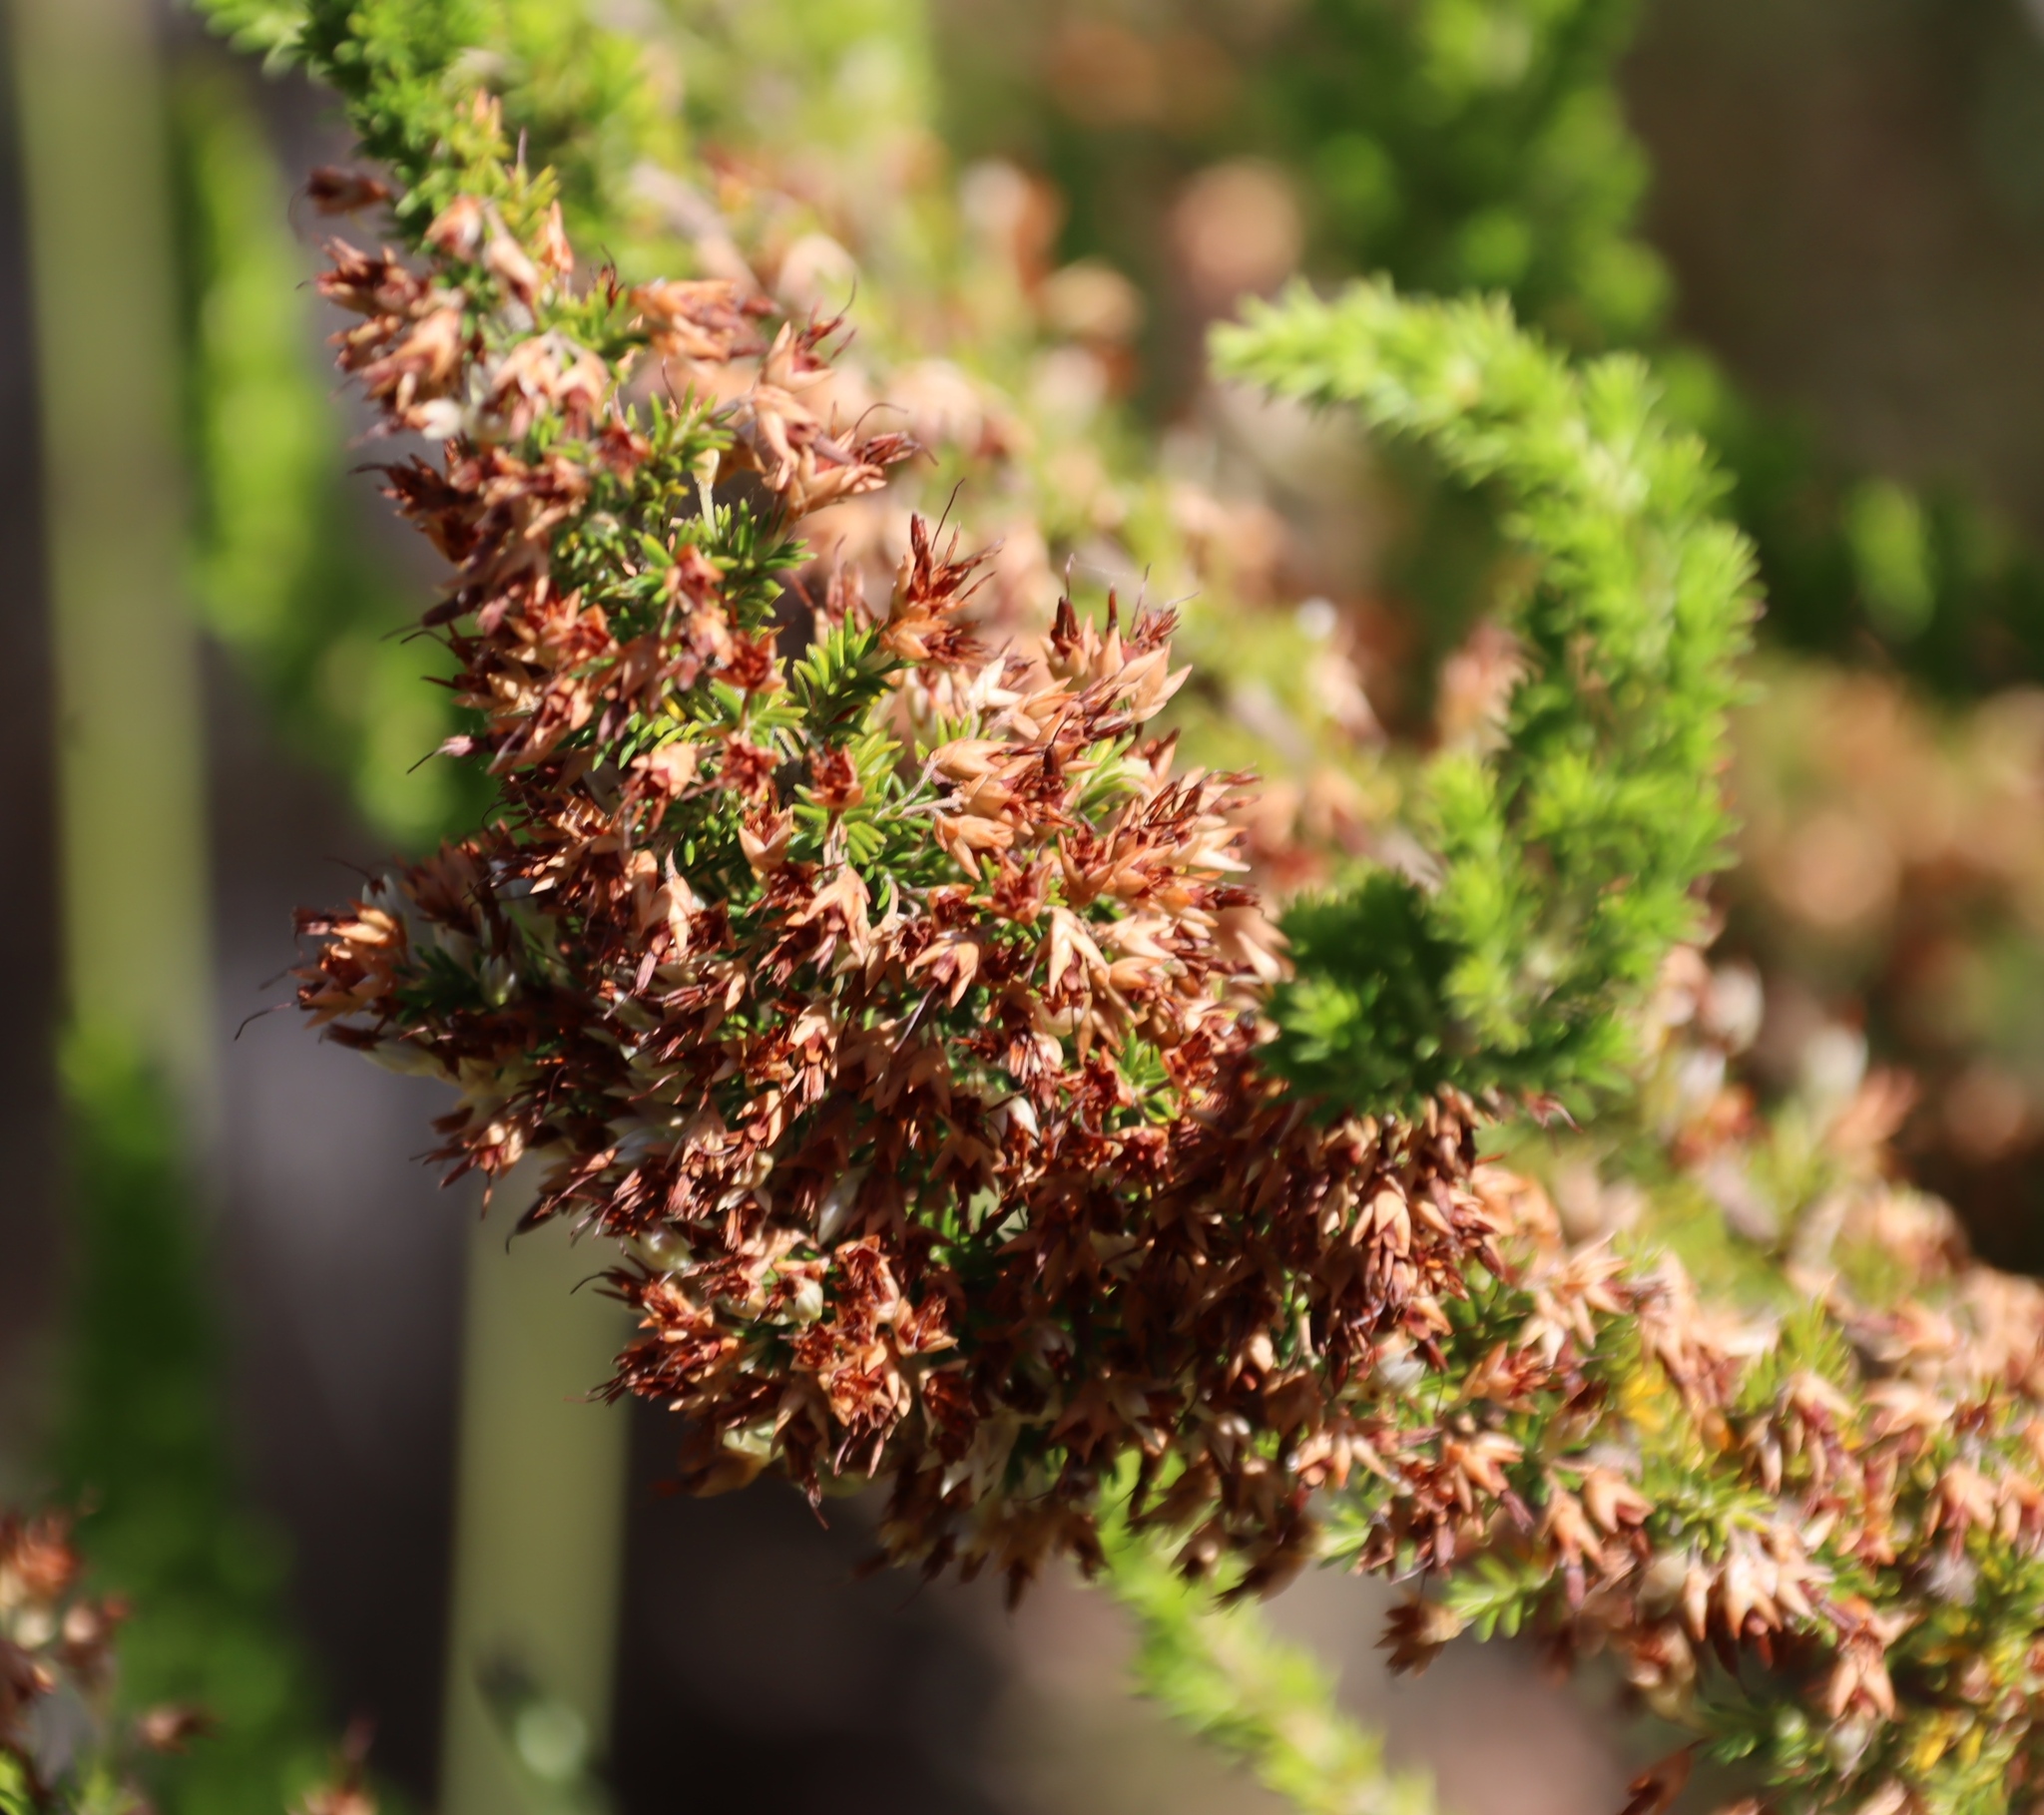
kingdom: Plantae
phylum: Tracheophyta
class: Magnoliopsida
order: Ericales
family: Ericaceae
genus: Erica
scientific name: Erica penicilliformis
